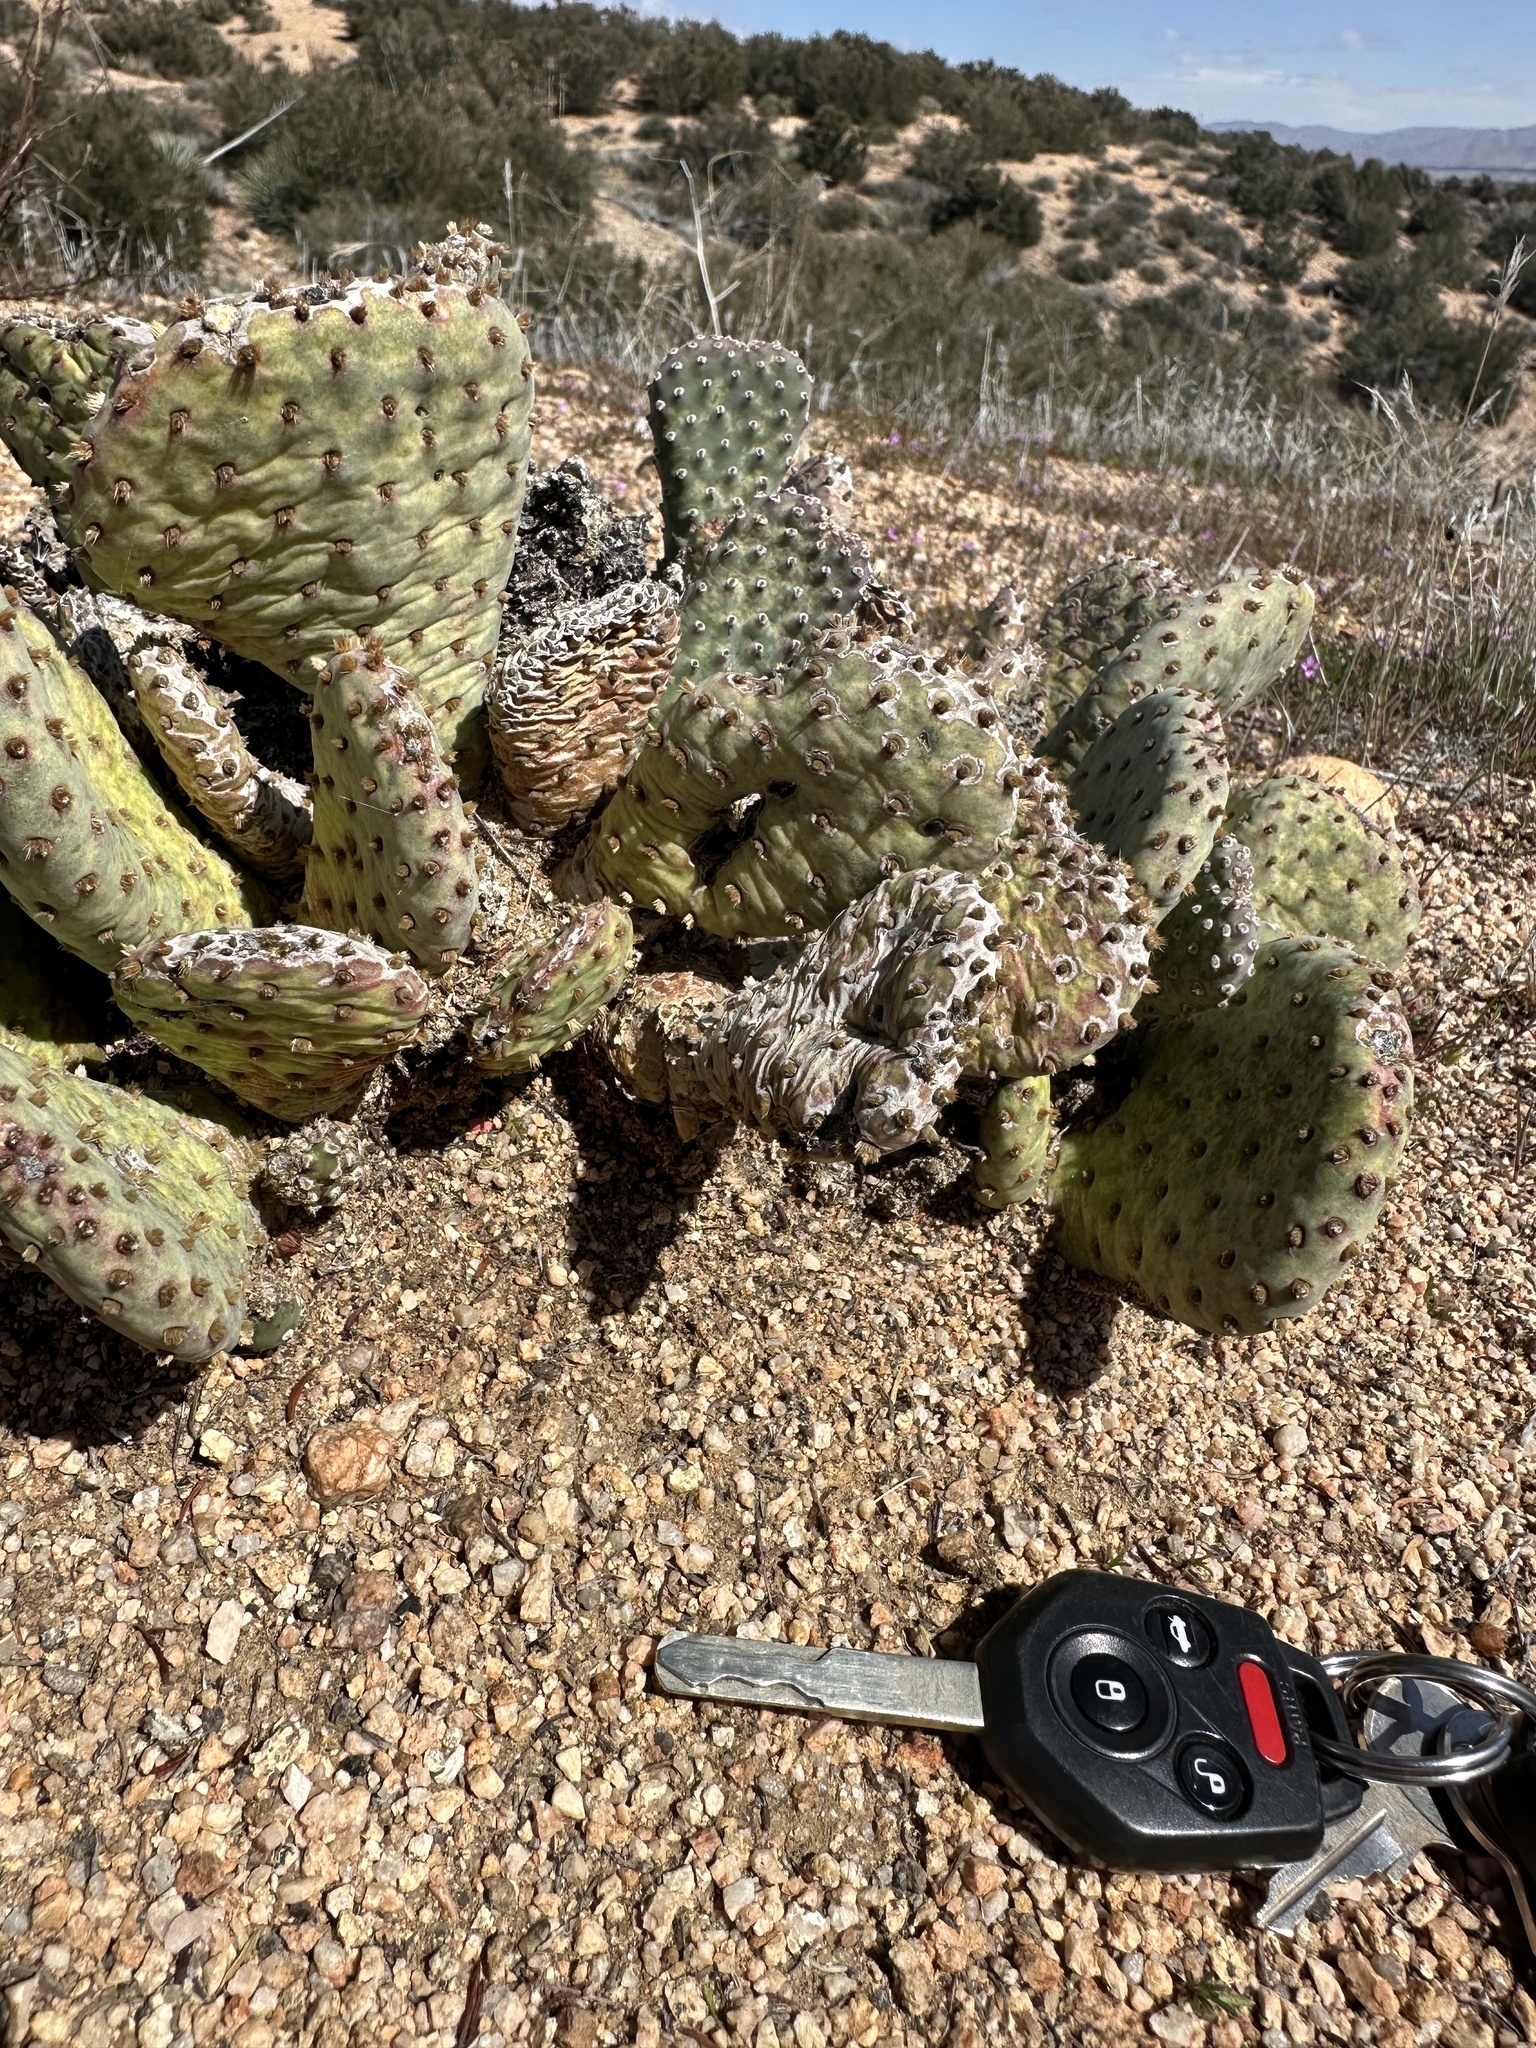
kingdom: Plantae
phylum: Tracheophyta
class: Magnoliopsida
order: Caryophyllales
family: Cactaceae
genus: Opuntia
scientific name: Opuntia basilaris
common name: Beavertail prickly-pear
